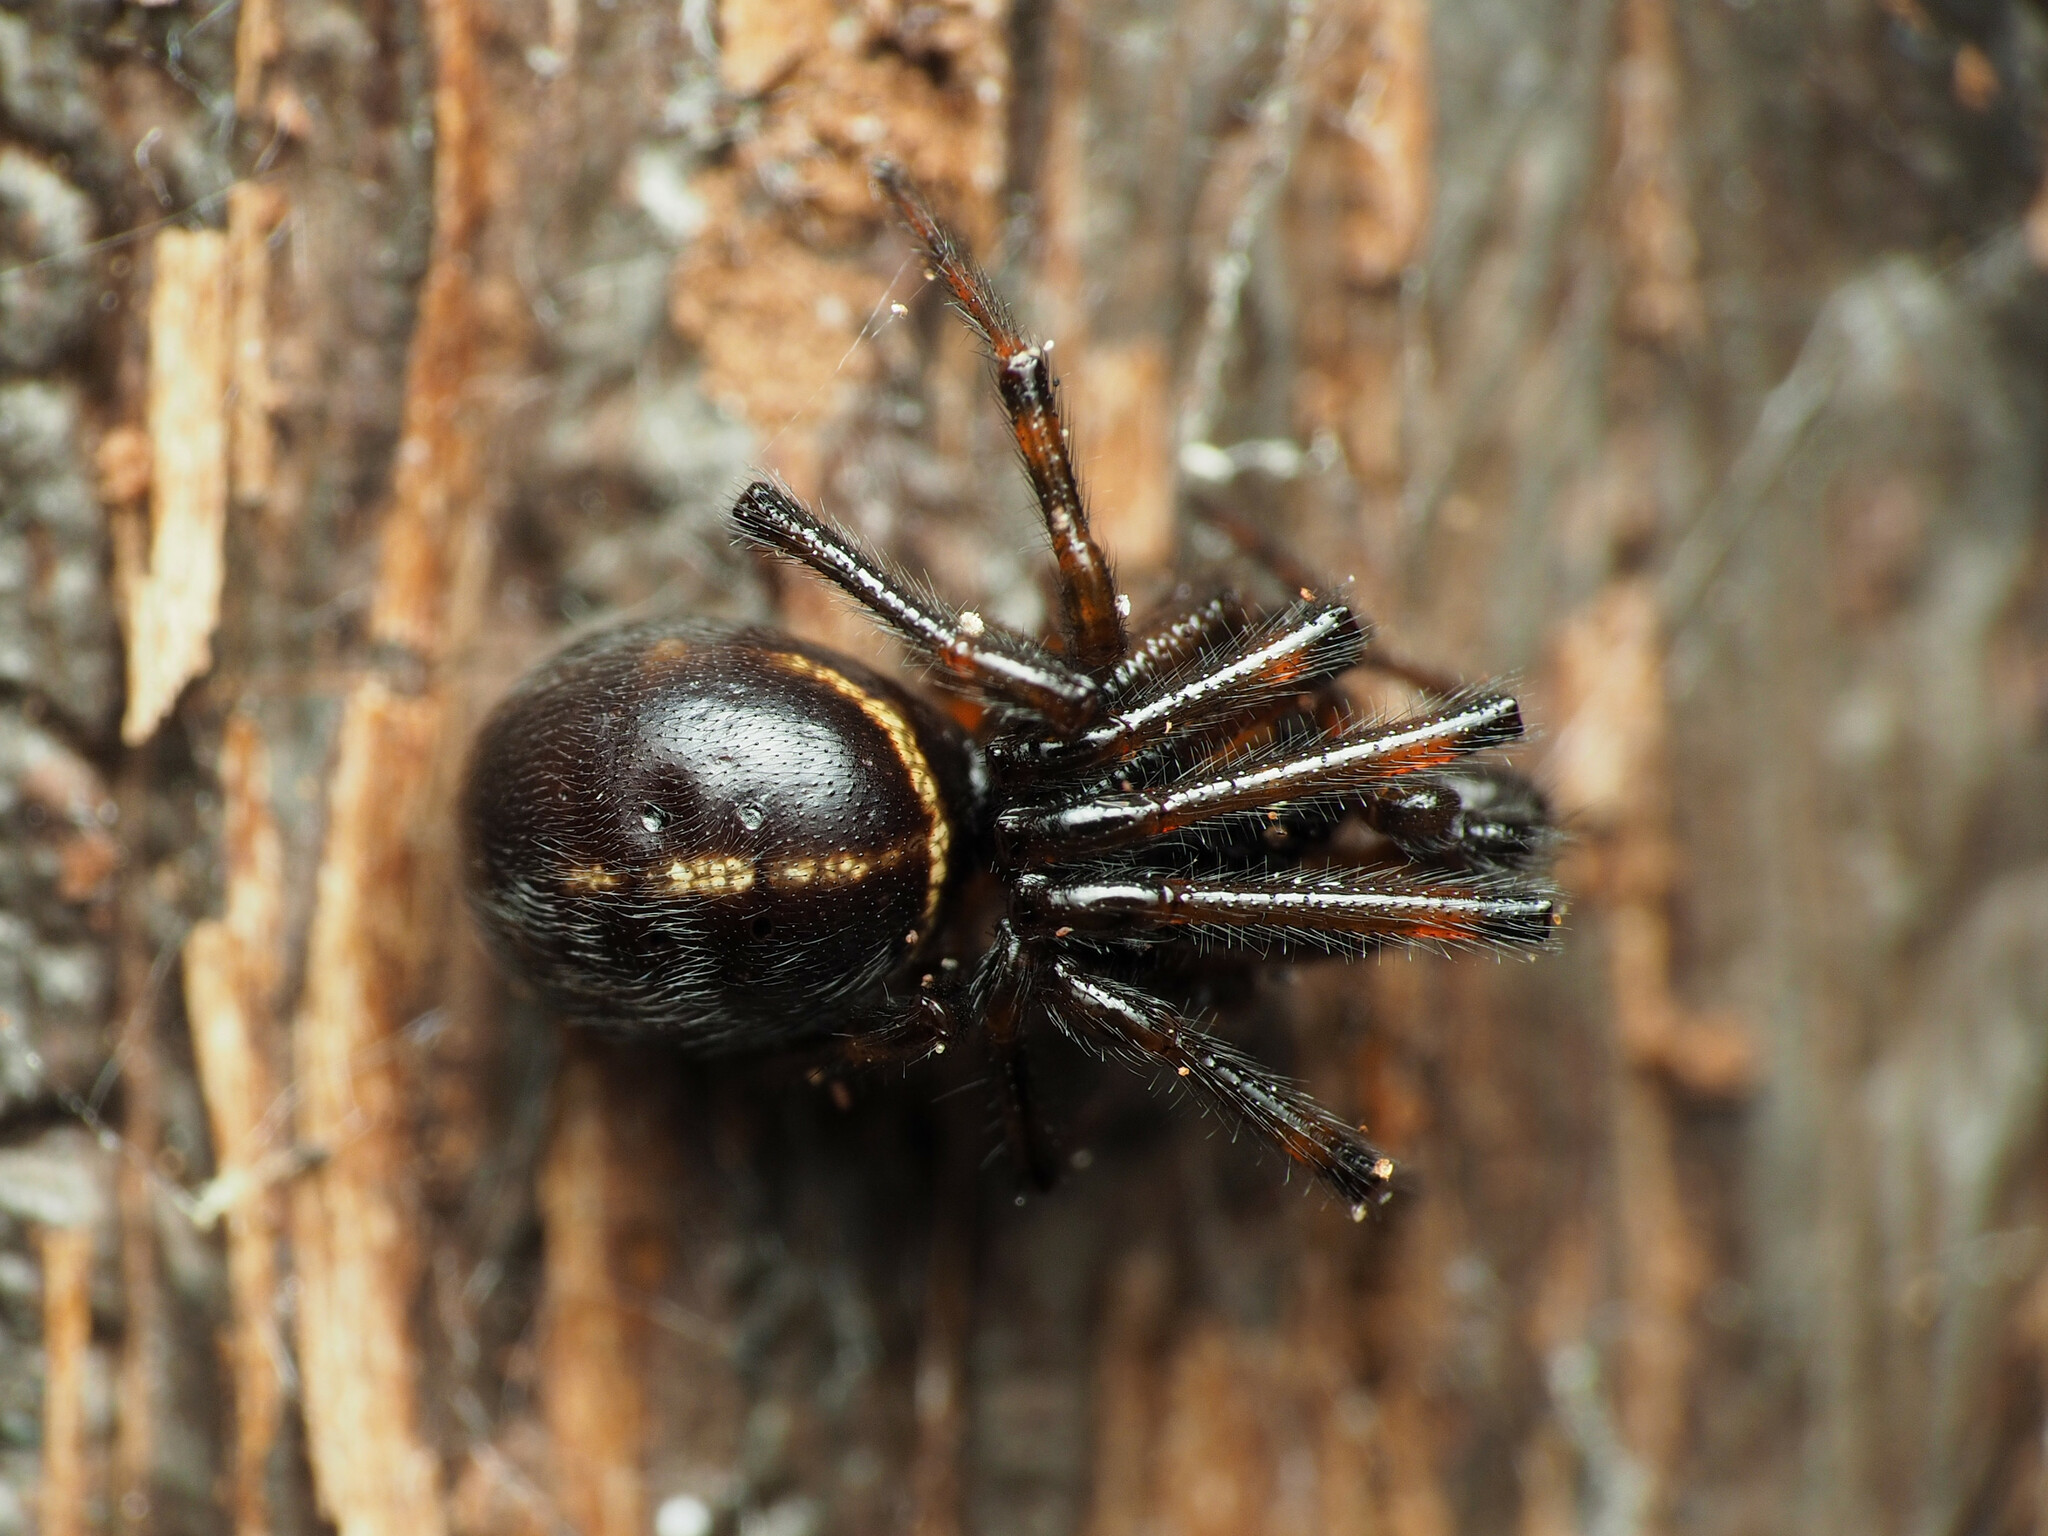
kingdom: Animalia
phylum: Arthropoda
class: Arachnida
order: Araneae
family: Theridiidae
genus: Steatoda
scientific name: Steatoda borealis
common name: Boreal combfoot
